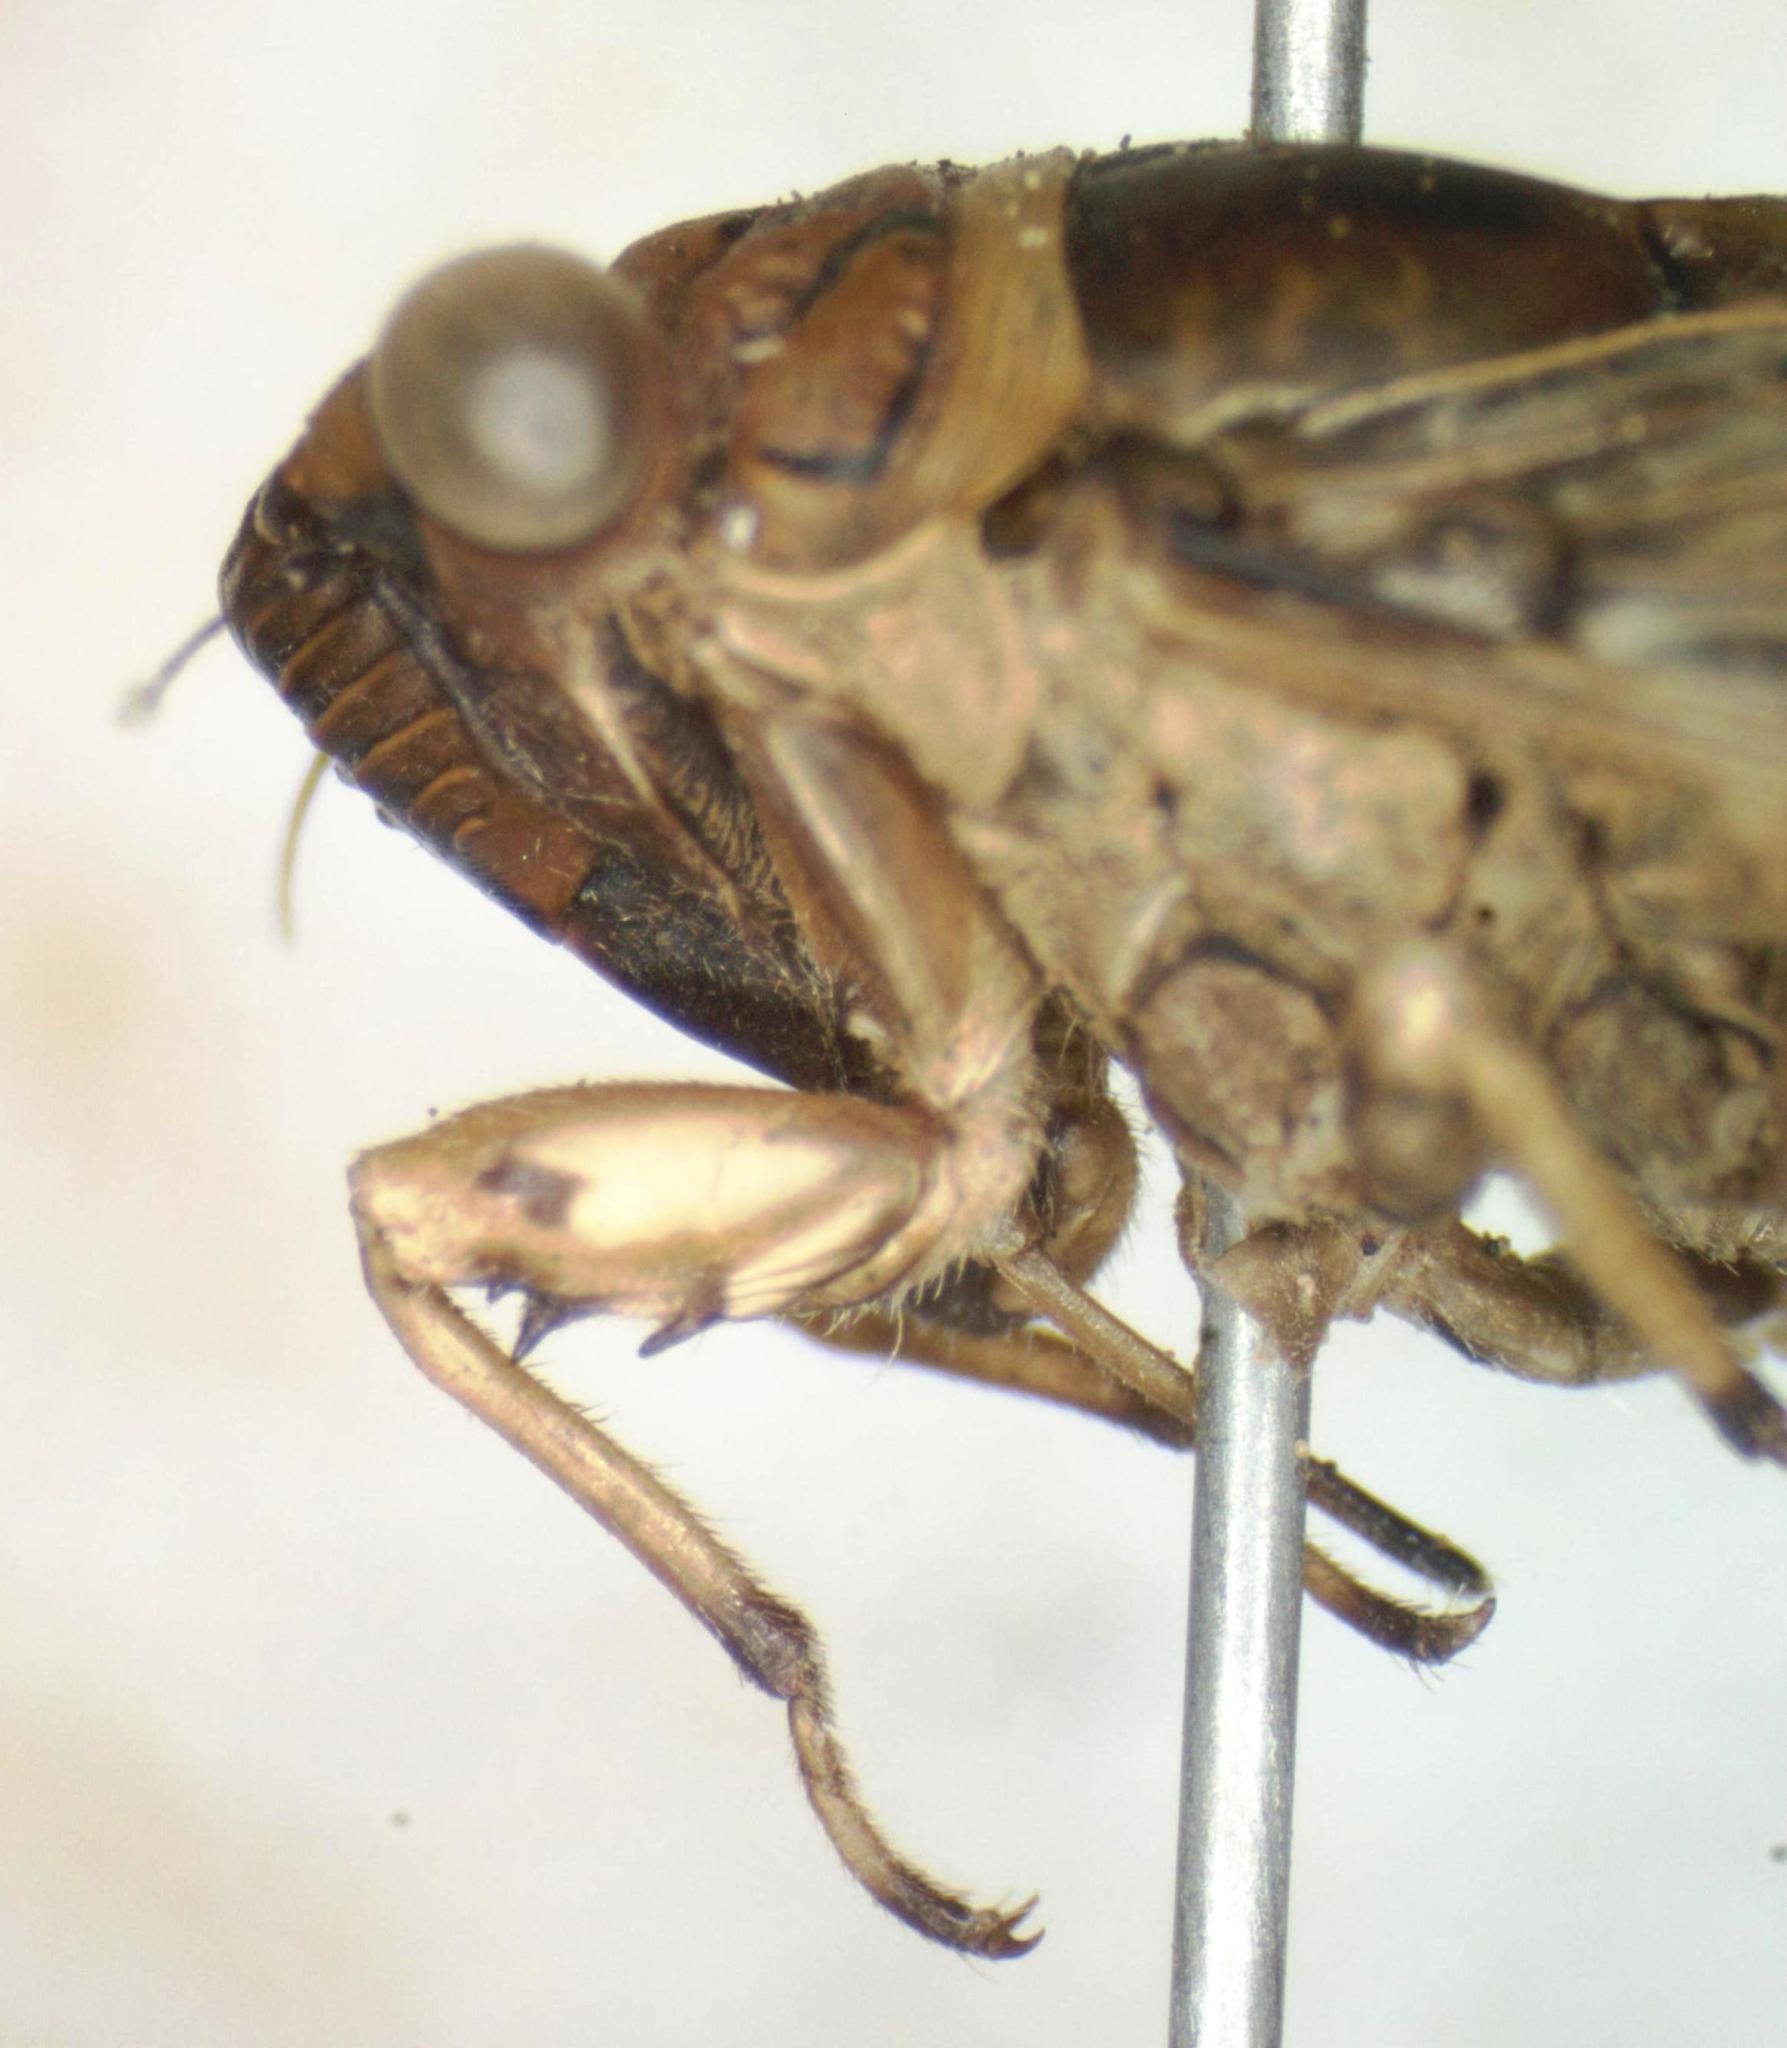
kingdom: Animalia
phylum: Arthropoda
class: Insecta
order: Hemiptera
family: Cicadidae
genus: Pacarina
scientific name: Pacarina schumanni
